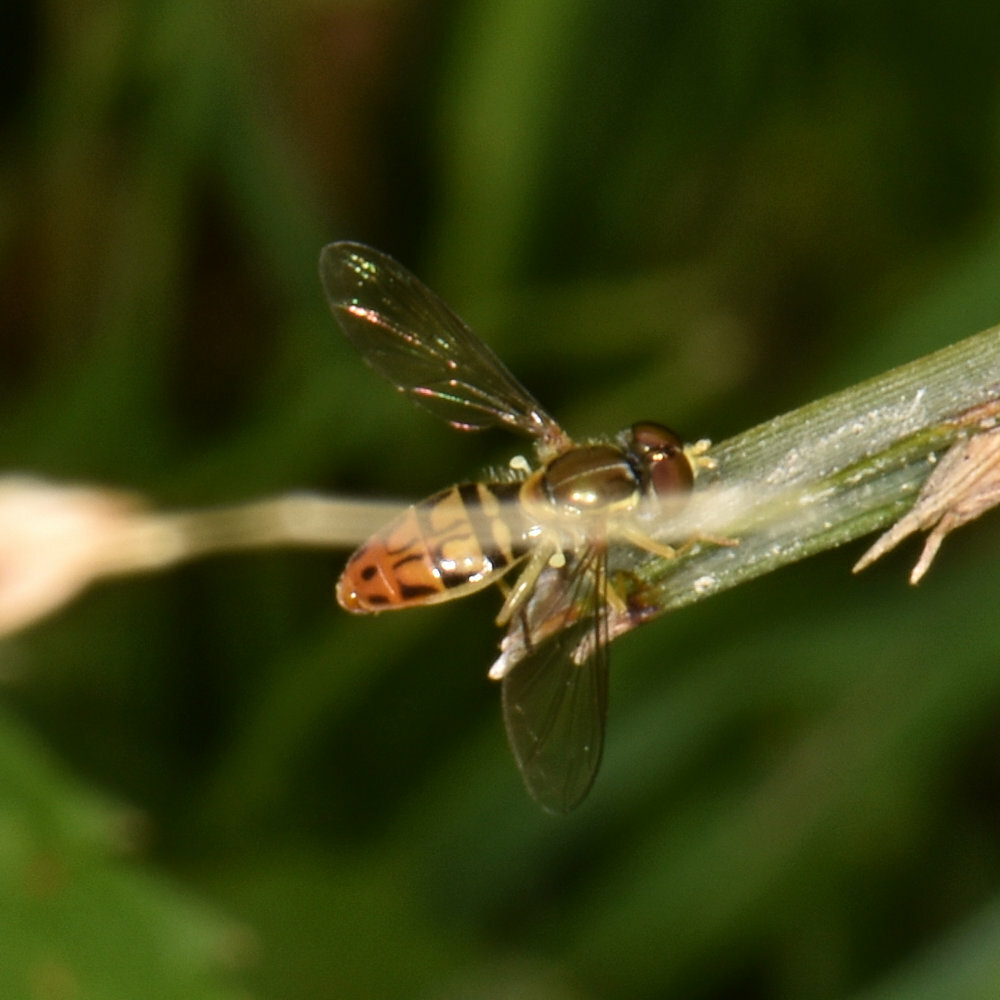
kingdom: Animalia
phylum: Arthropoda
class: Insecta
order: Diptera
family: Syrphidae
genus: Toxomerus
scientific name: Toxomerus marginatus
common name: Syrphid fly
